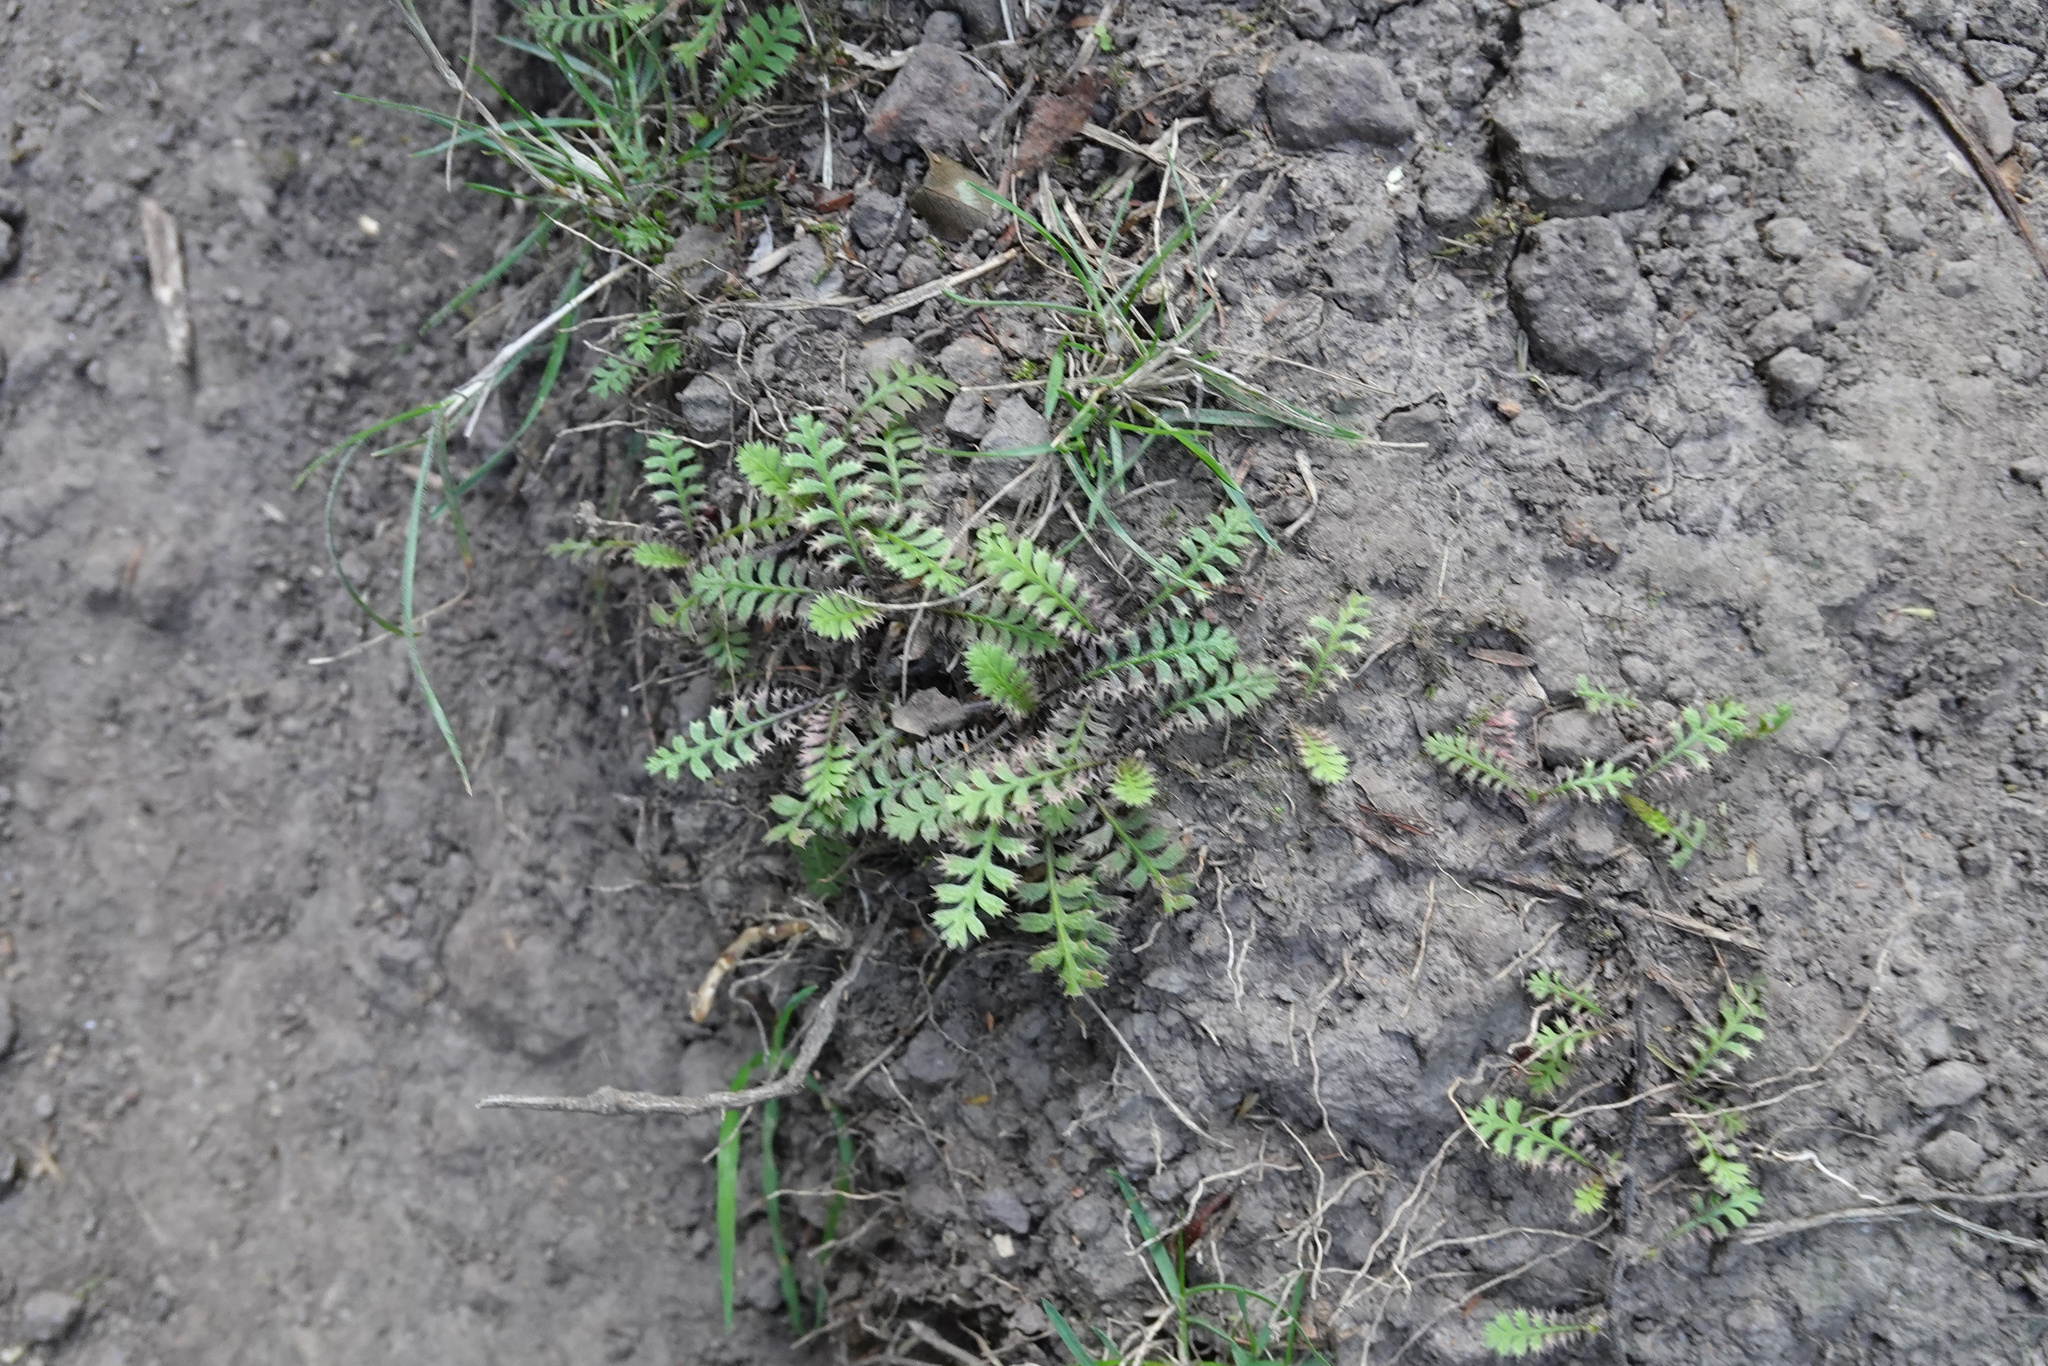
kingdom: Plantae
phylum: Tracheophyta
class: Magnoliopsida
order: Asterales
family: Asteraceae
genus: Leptinella
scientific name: Leptinella minor
